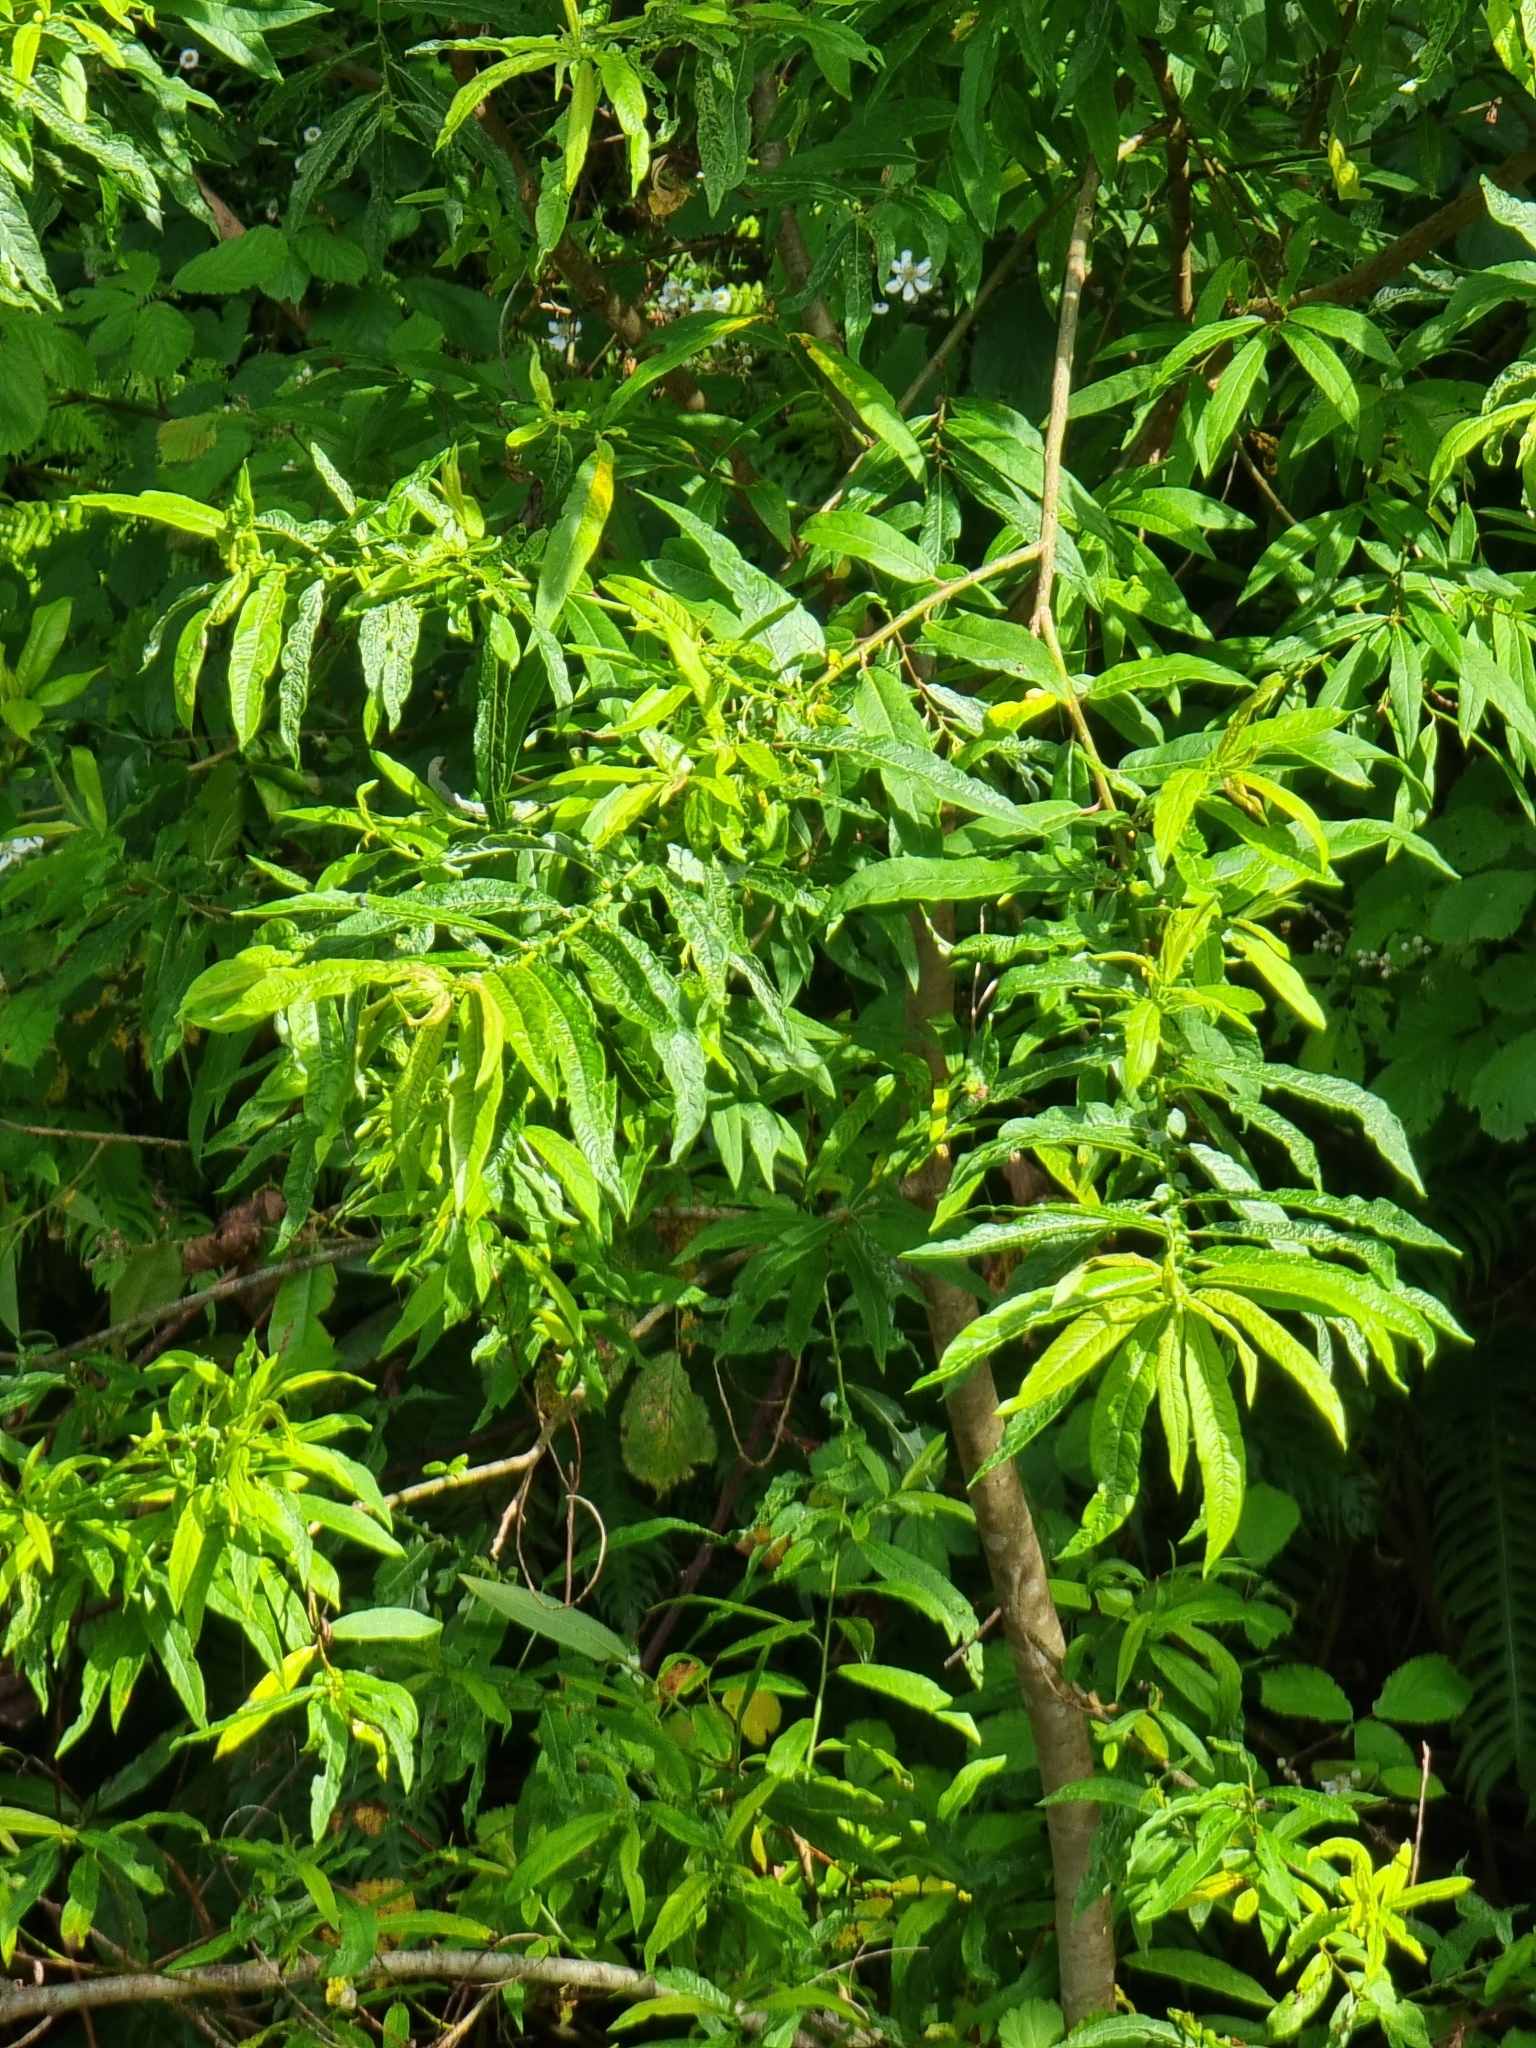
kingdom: Plantae
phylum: Tracheophyta
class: Magnoliopsida
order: Malpighiales
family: Salicaceae
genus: Salix
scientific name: Salix canariensis
